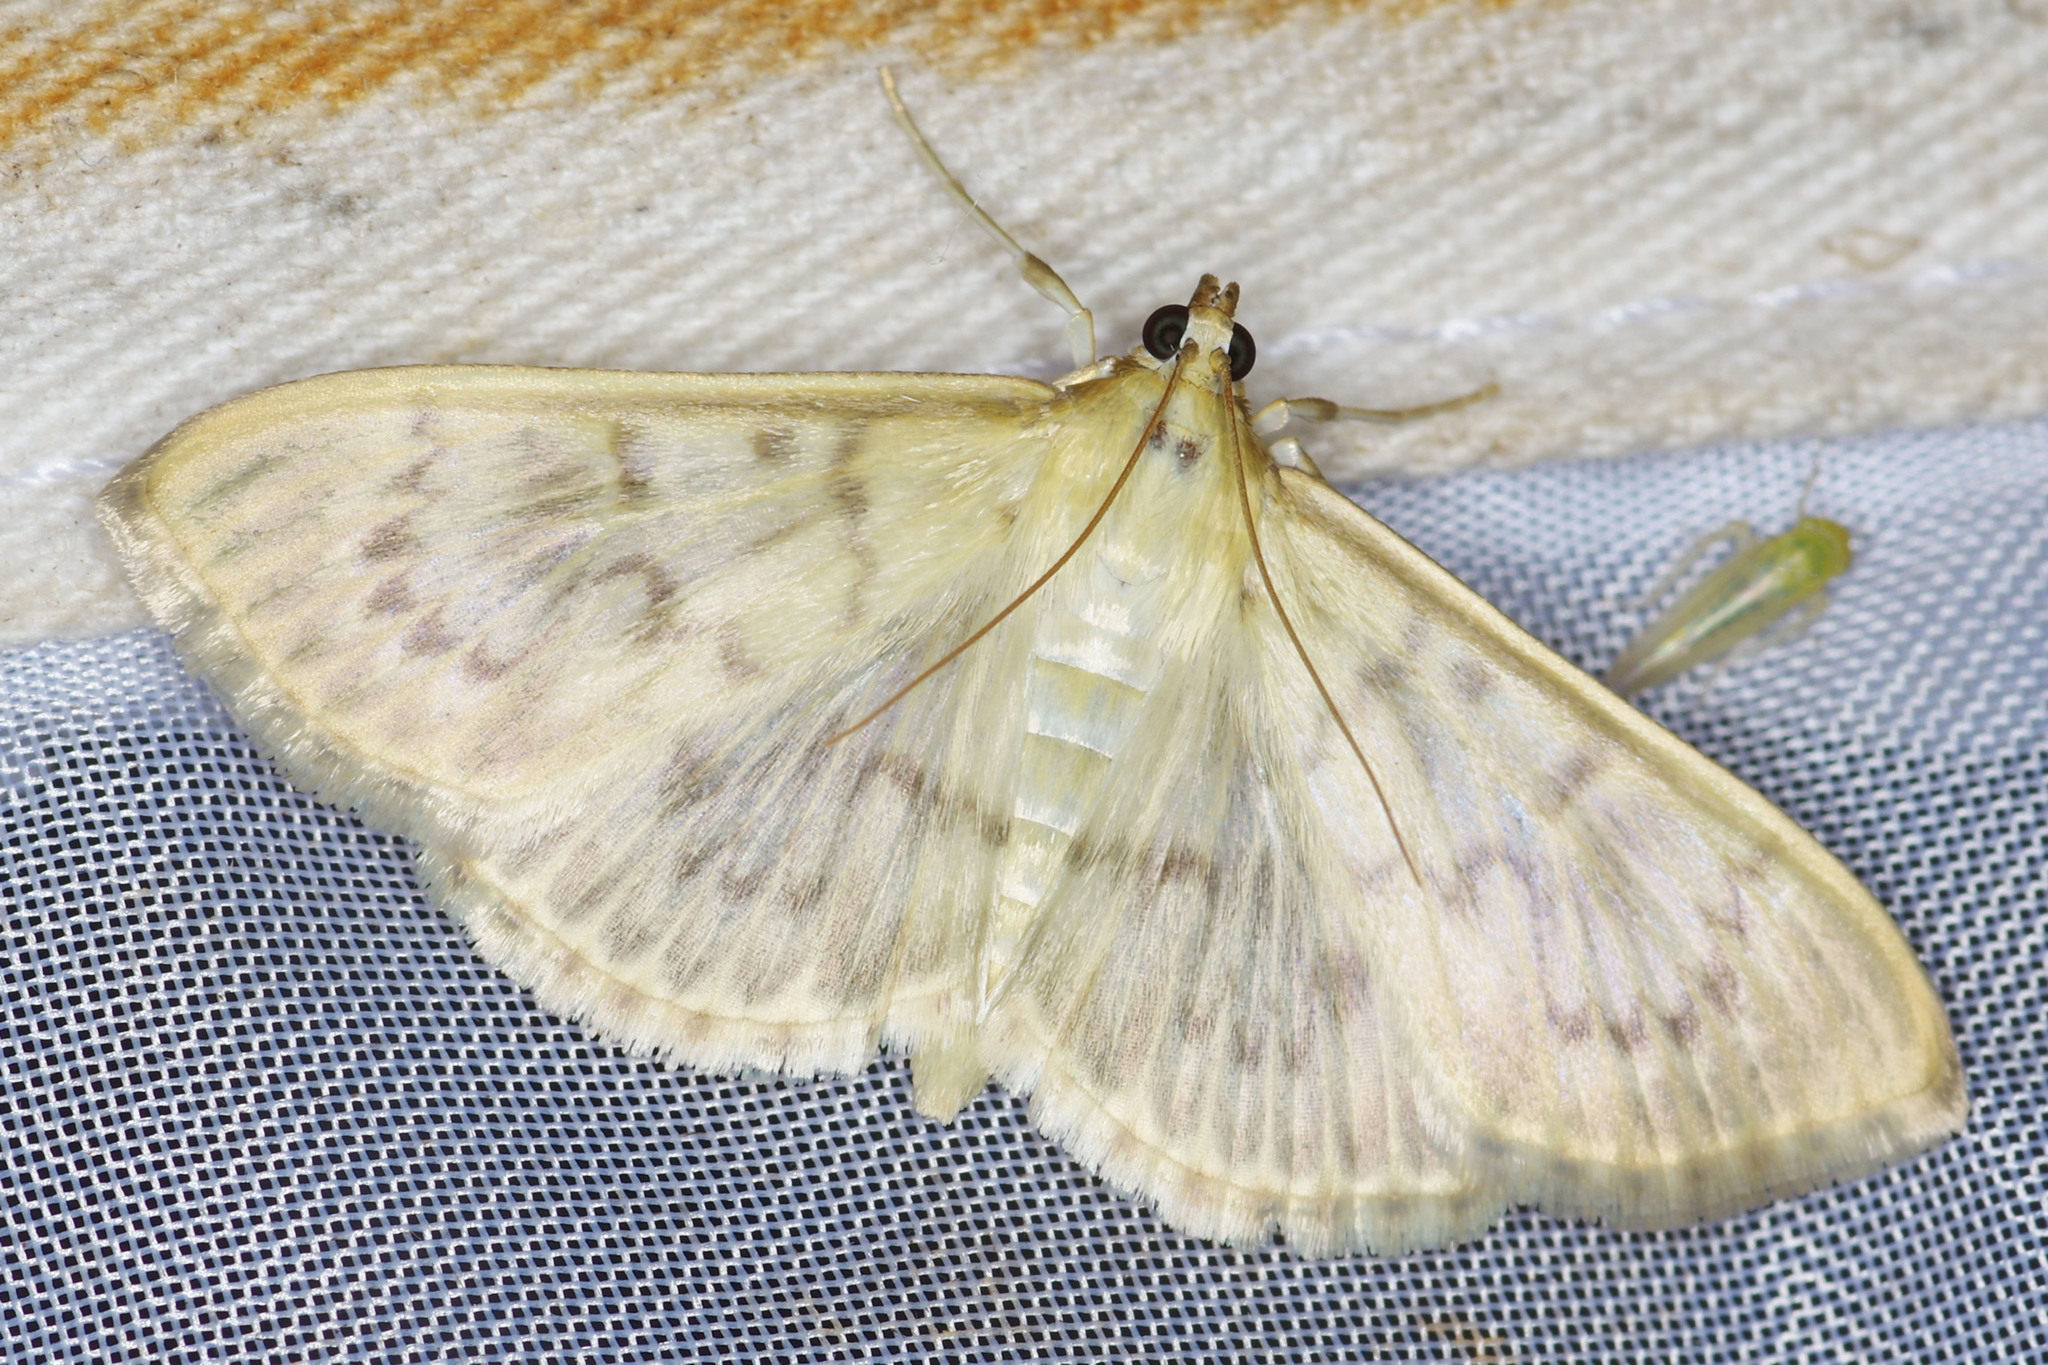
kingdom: Animalia
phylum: Arthropoda
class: Insecta
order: Lepidoptera
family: Crambidae
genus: Patania
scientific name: Patania ruralis
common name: Mother of pearl
